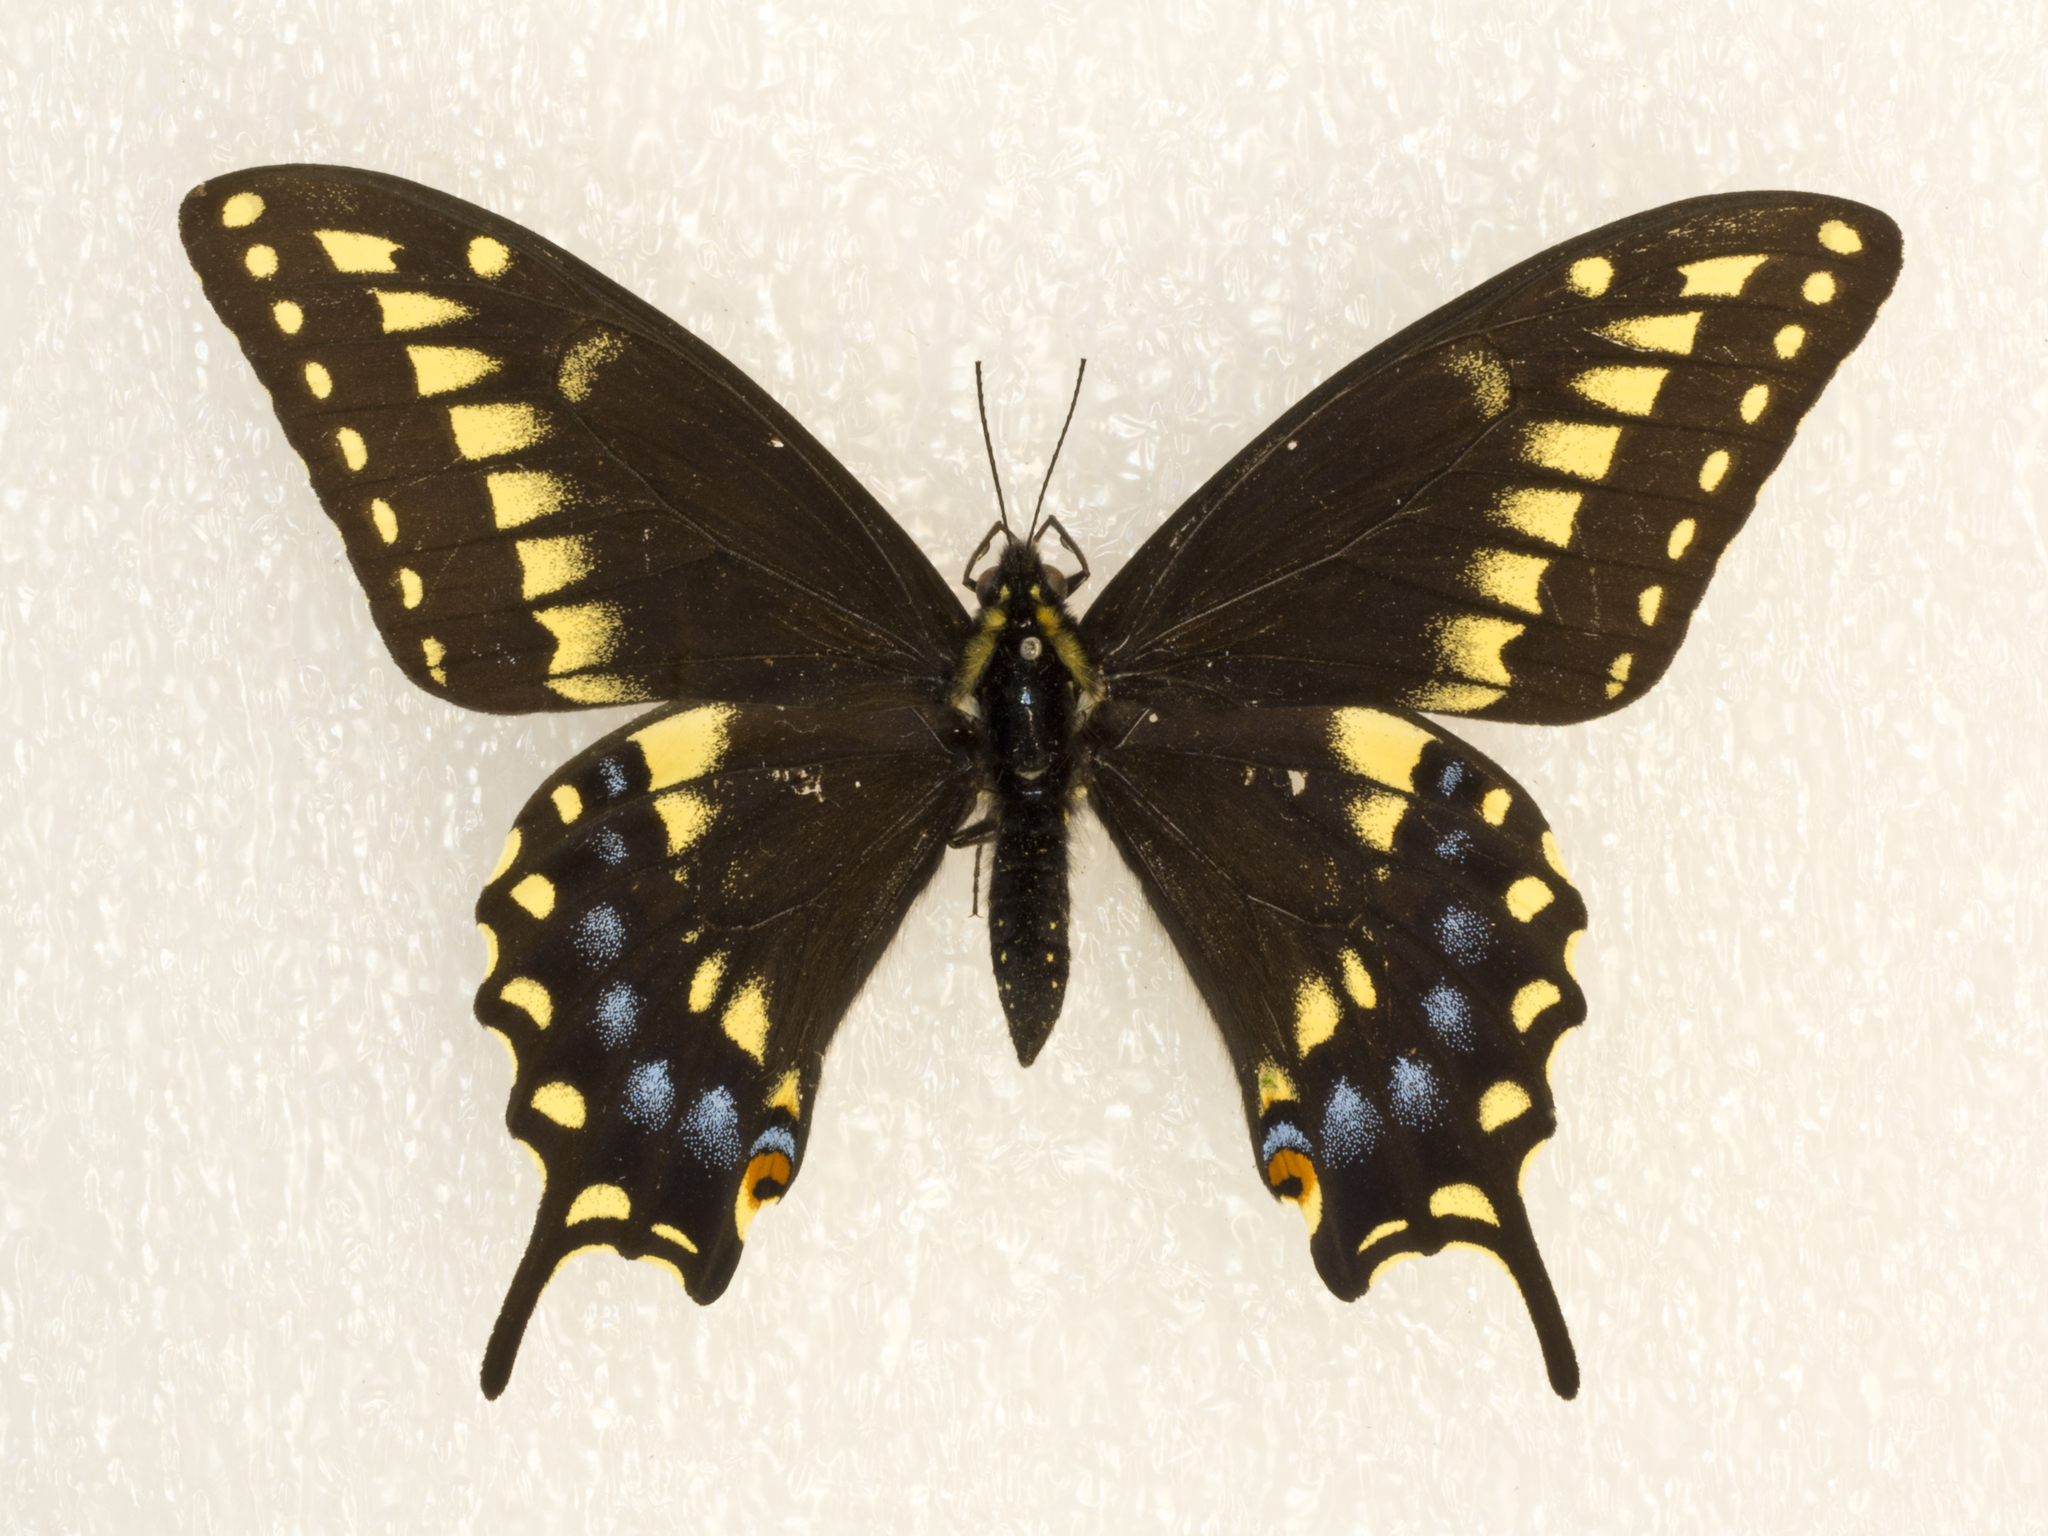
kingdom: Animalia
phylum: Arthropoda
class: Insecta
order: Lepidoptera
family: Papilionidae
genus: Papilio
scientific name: Papilio
